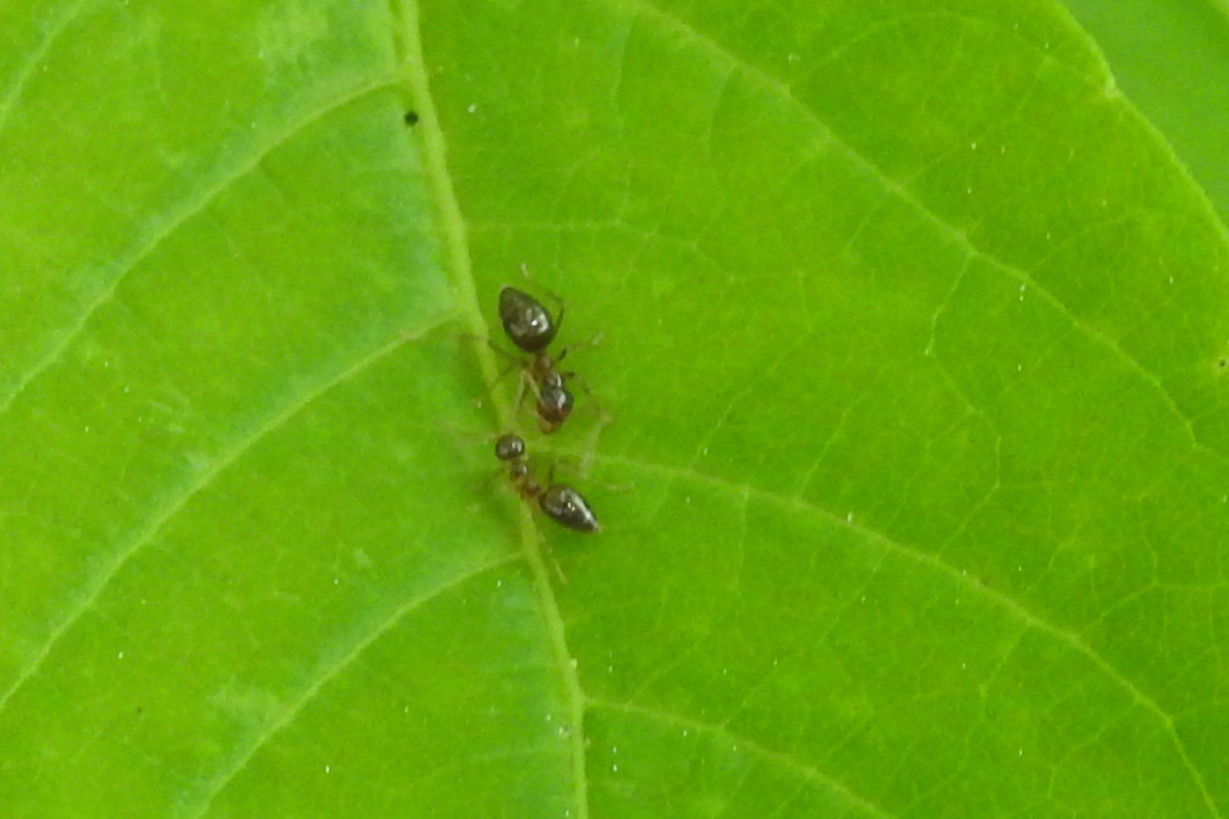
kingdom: Animalia
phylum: Arthropoda
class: Insecta
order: Hymenoptera
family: Formicidae
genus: Prenolepis
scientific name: Prenolepis imparis
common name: Small honey ant
